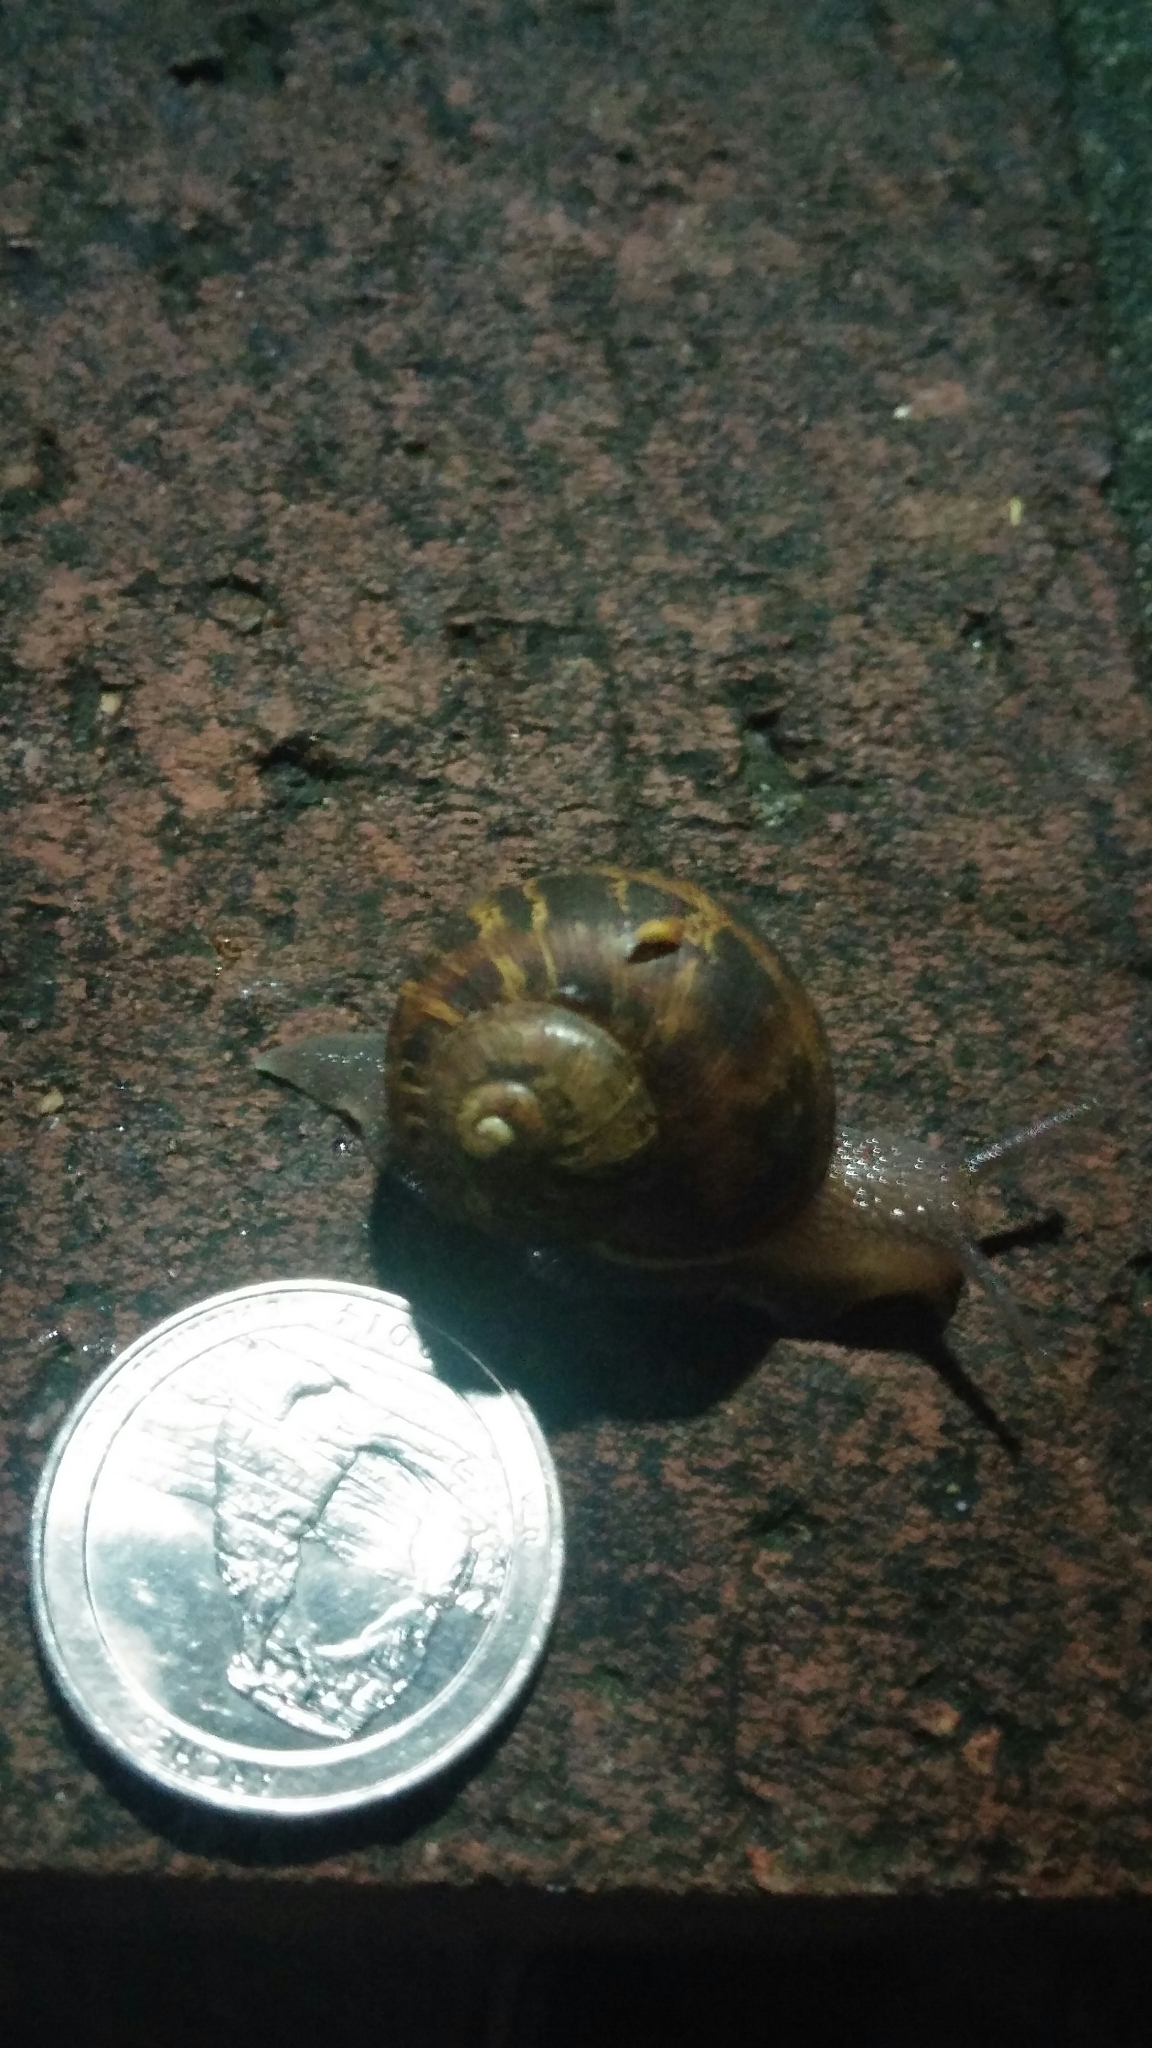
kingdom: Animalia
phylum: Mollusca
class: Gastropoda
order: Stylommatophora
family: Helicidae
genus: Cornu
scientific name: Cornu aspersum
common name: Brown garden snail
